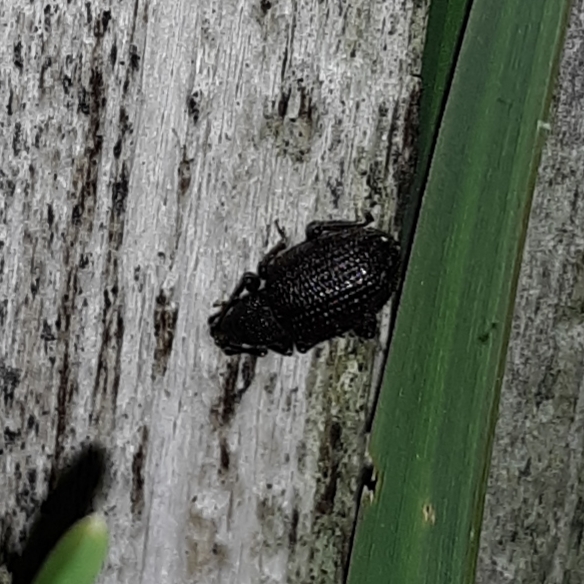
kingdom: Animalia
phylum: Arthropoda
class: Insecta
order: Coleoptera
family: Curculionidae
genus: Otiorhynchus
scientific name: Otiorhynchus sulcatus
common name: Black vine weevil
